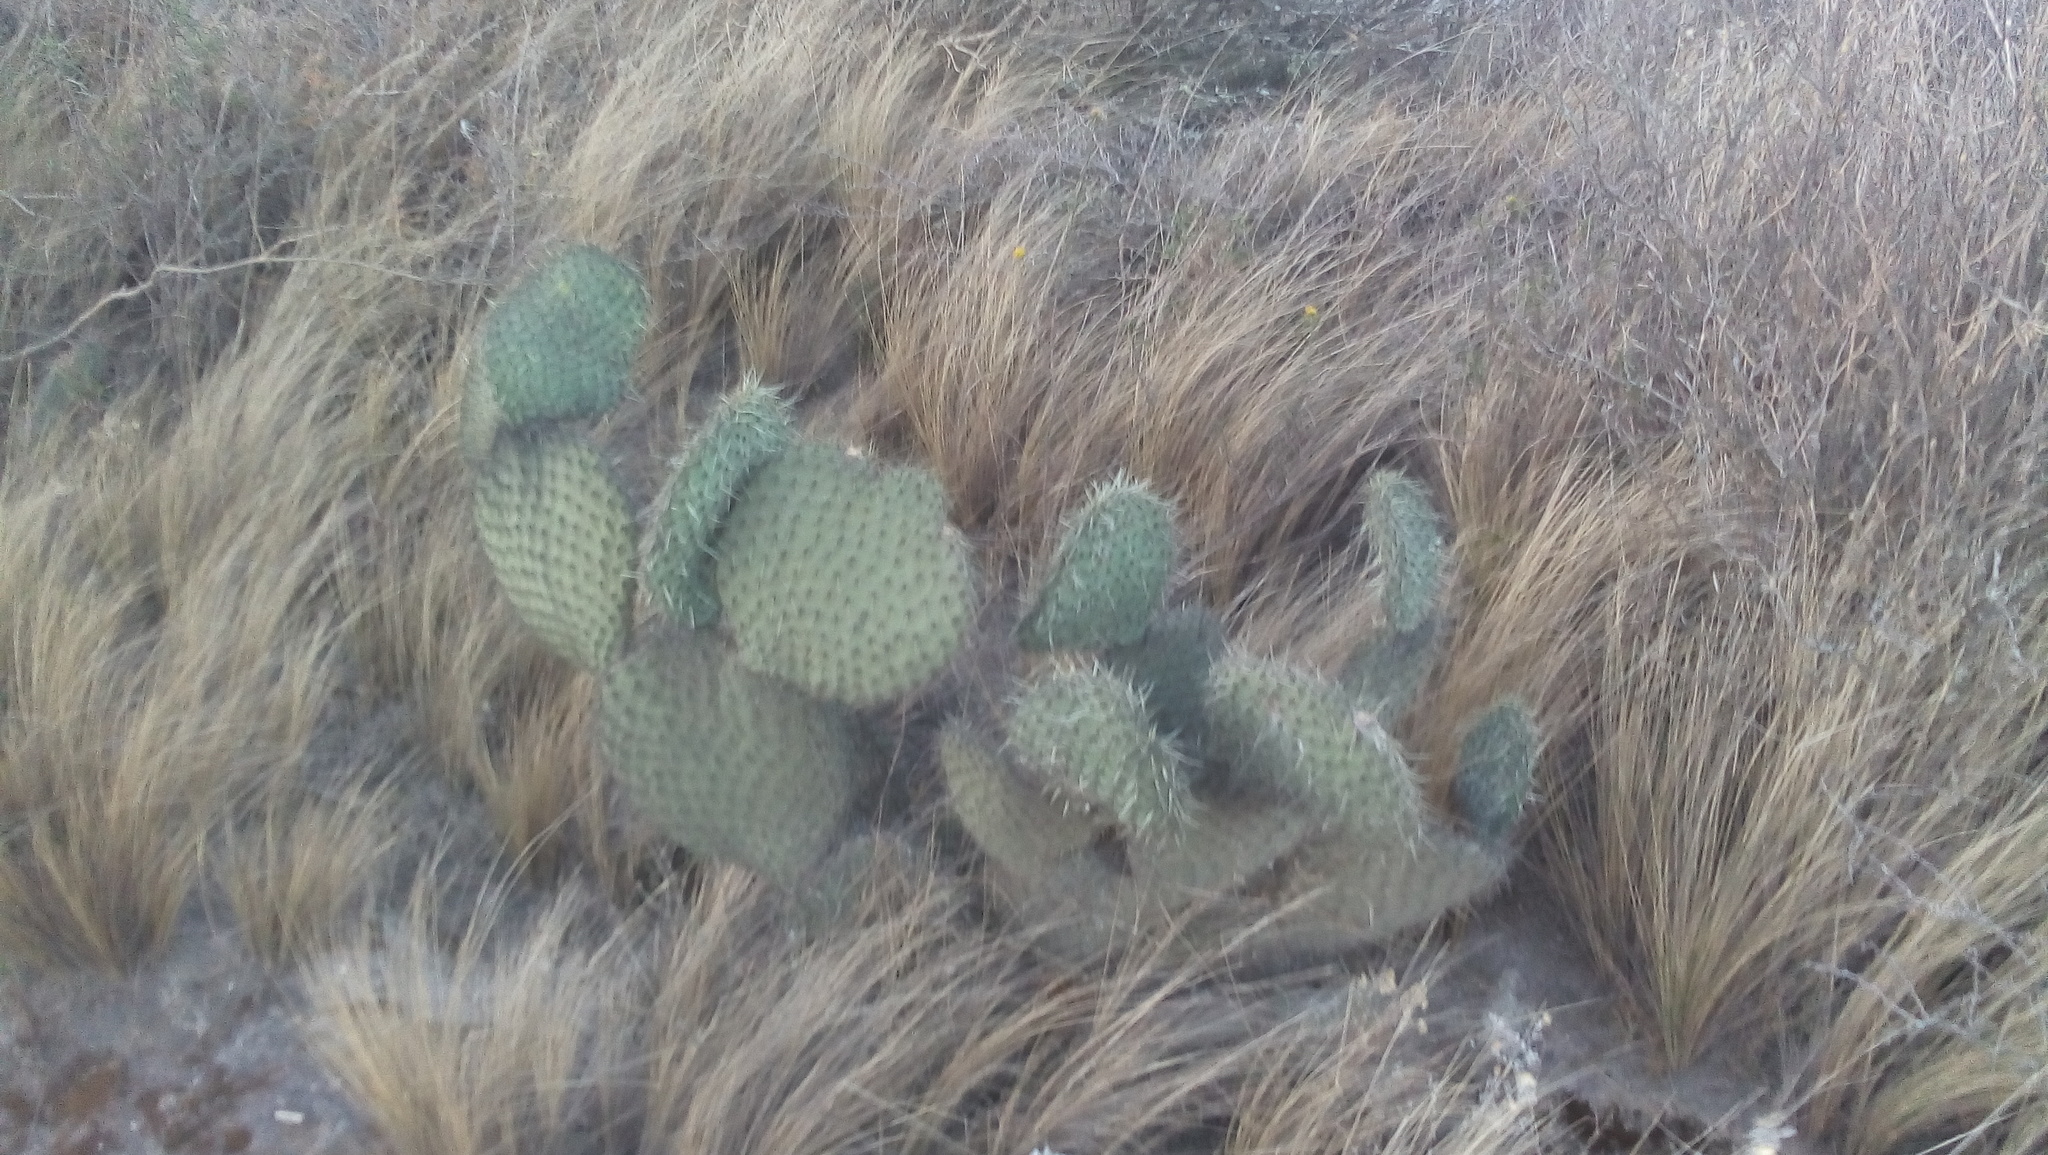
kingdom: Plantae
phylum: Tracheophyta
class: Magnoliopsida
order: Caryophyllales
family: Cactaceae
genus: Opuntia
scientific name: Opuntia huajuapensis
